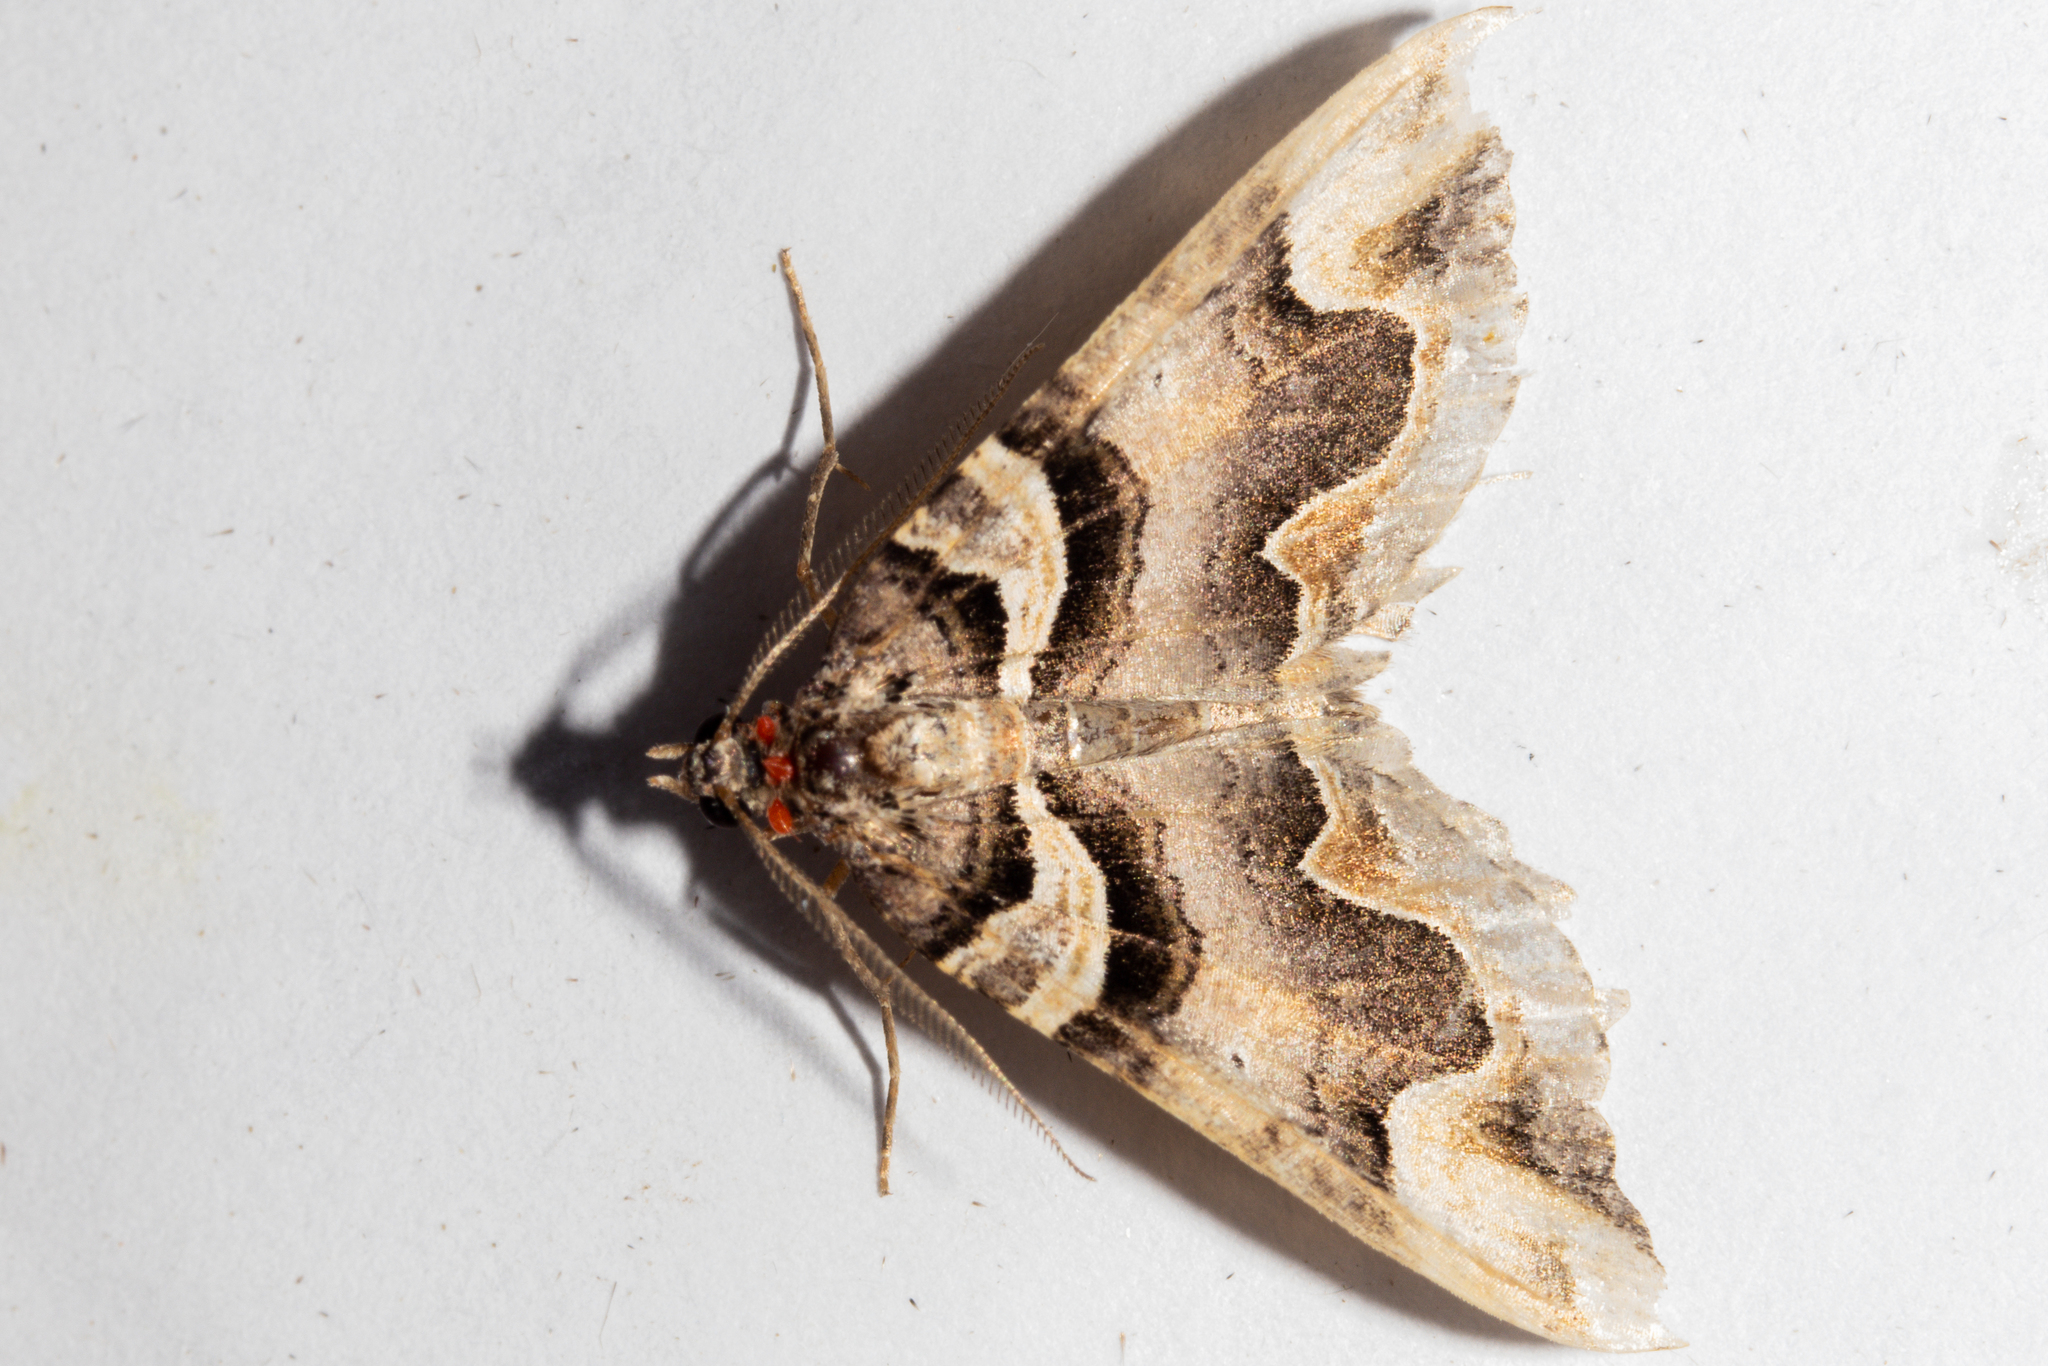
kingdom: Animalia
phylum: Arthropoda
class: Insecta
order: Lepidoptera
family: Geometridae
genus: Asaphodes
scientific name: Asaphodes chlamydota
